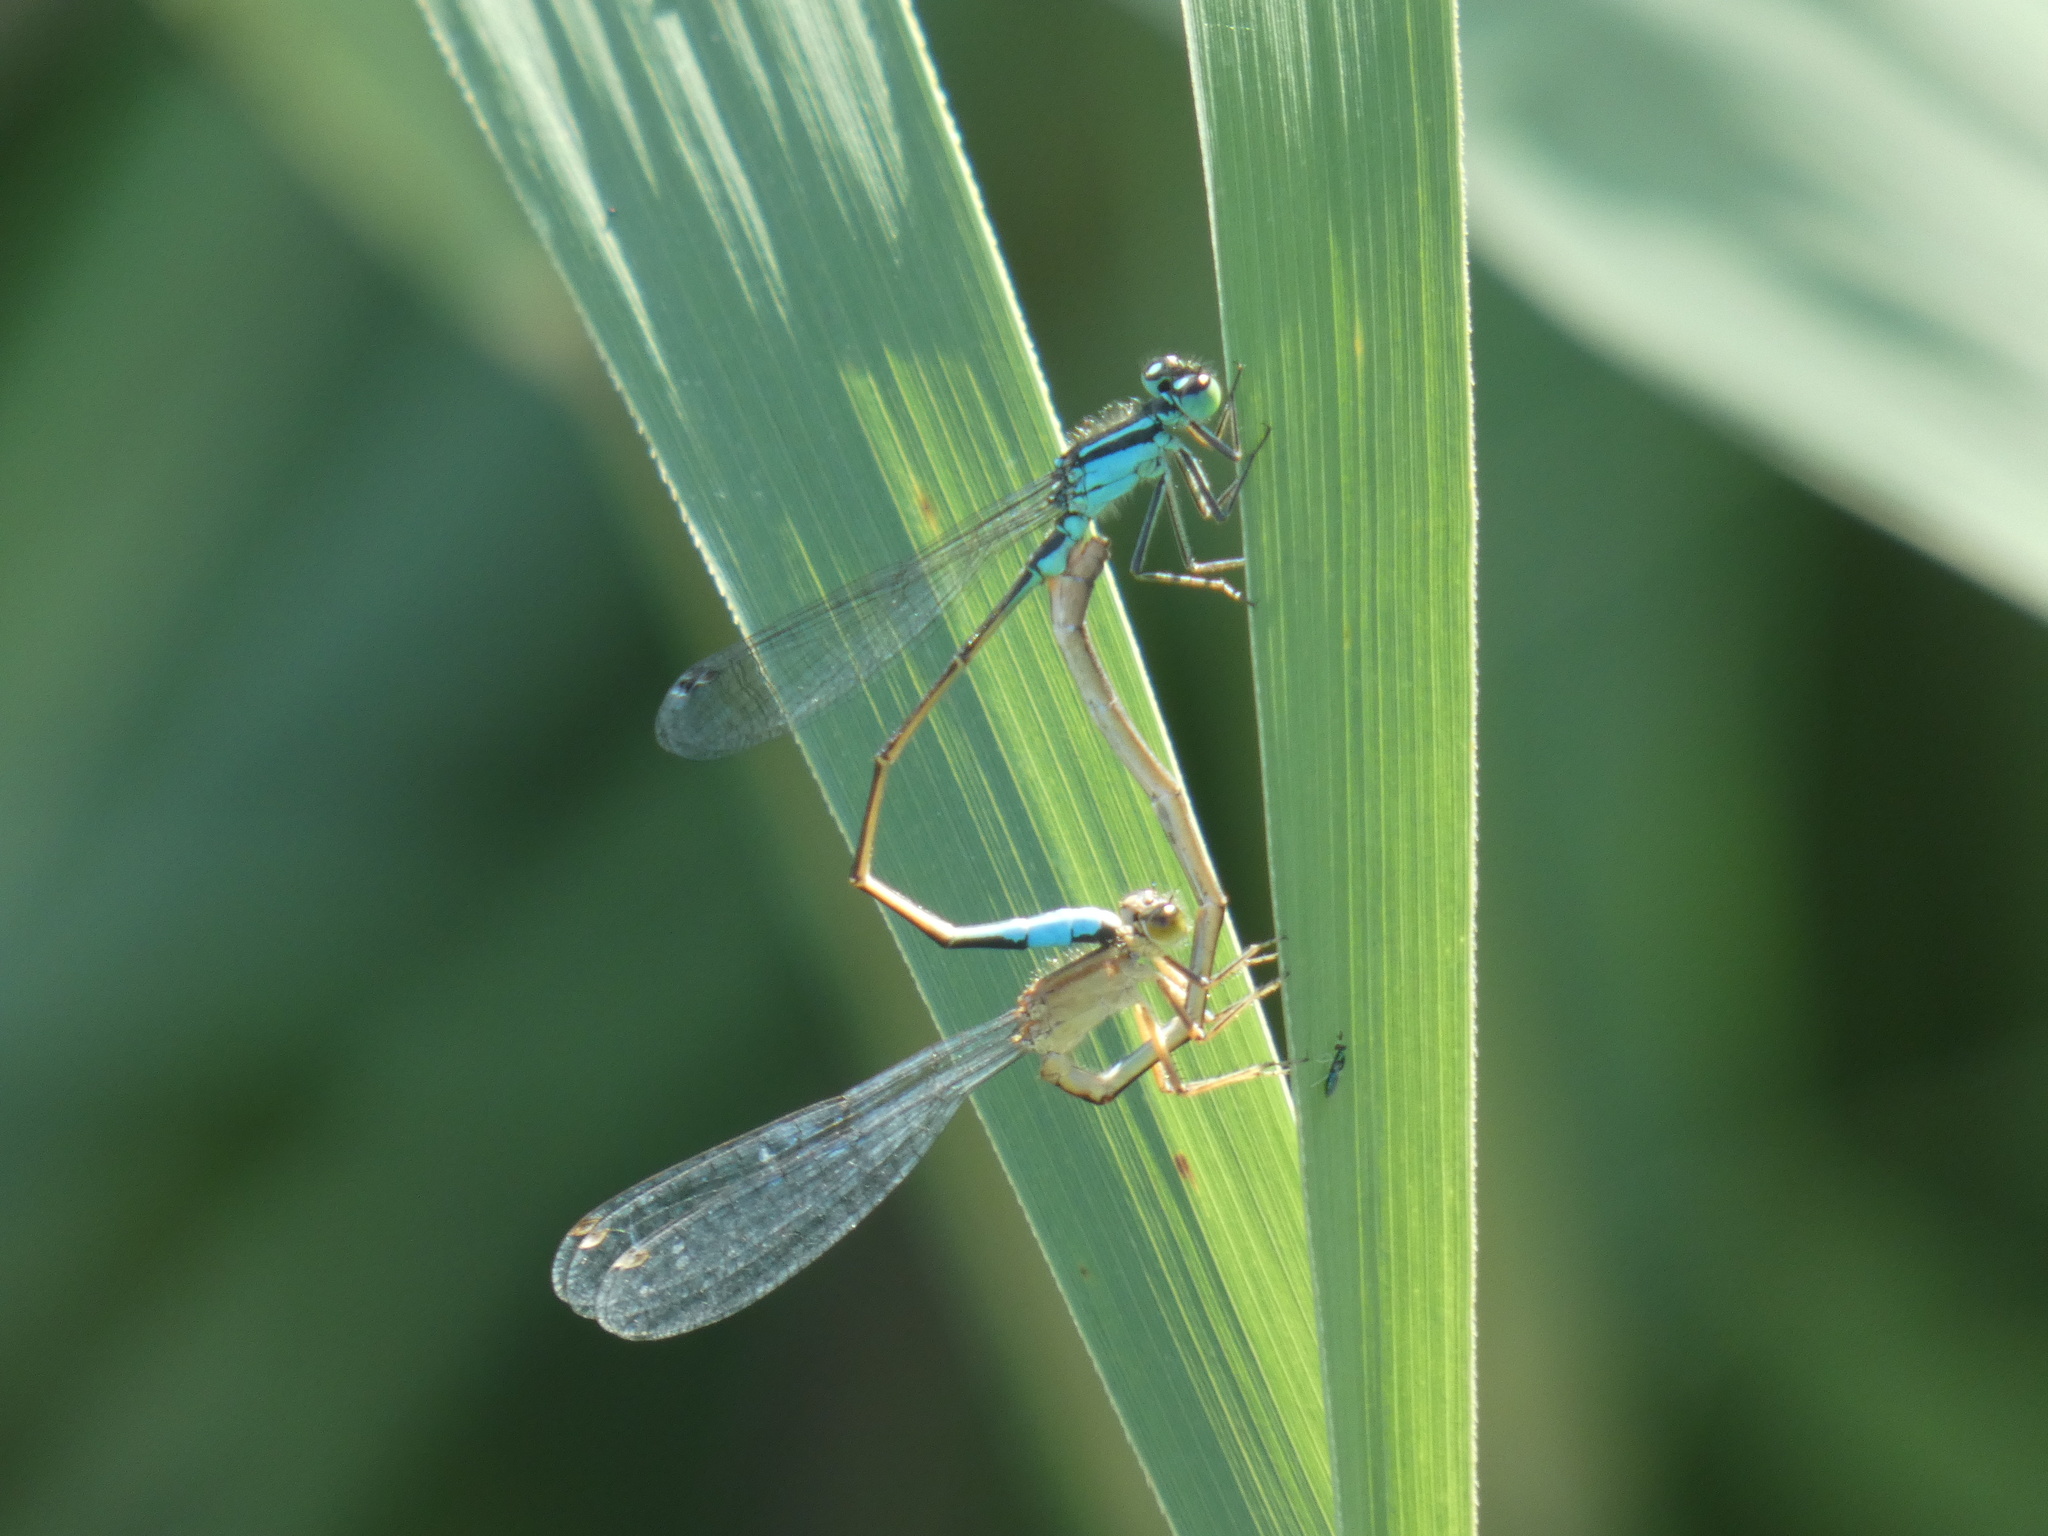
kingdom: Animalia
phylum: Arthropoda
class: Insecta
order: Odonata
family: Coenagrionidae
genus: Ischnura
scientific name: Ischnura elegans
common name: Blue-tailed damselfly
